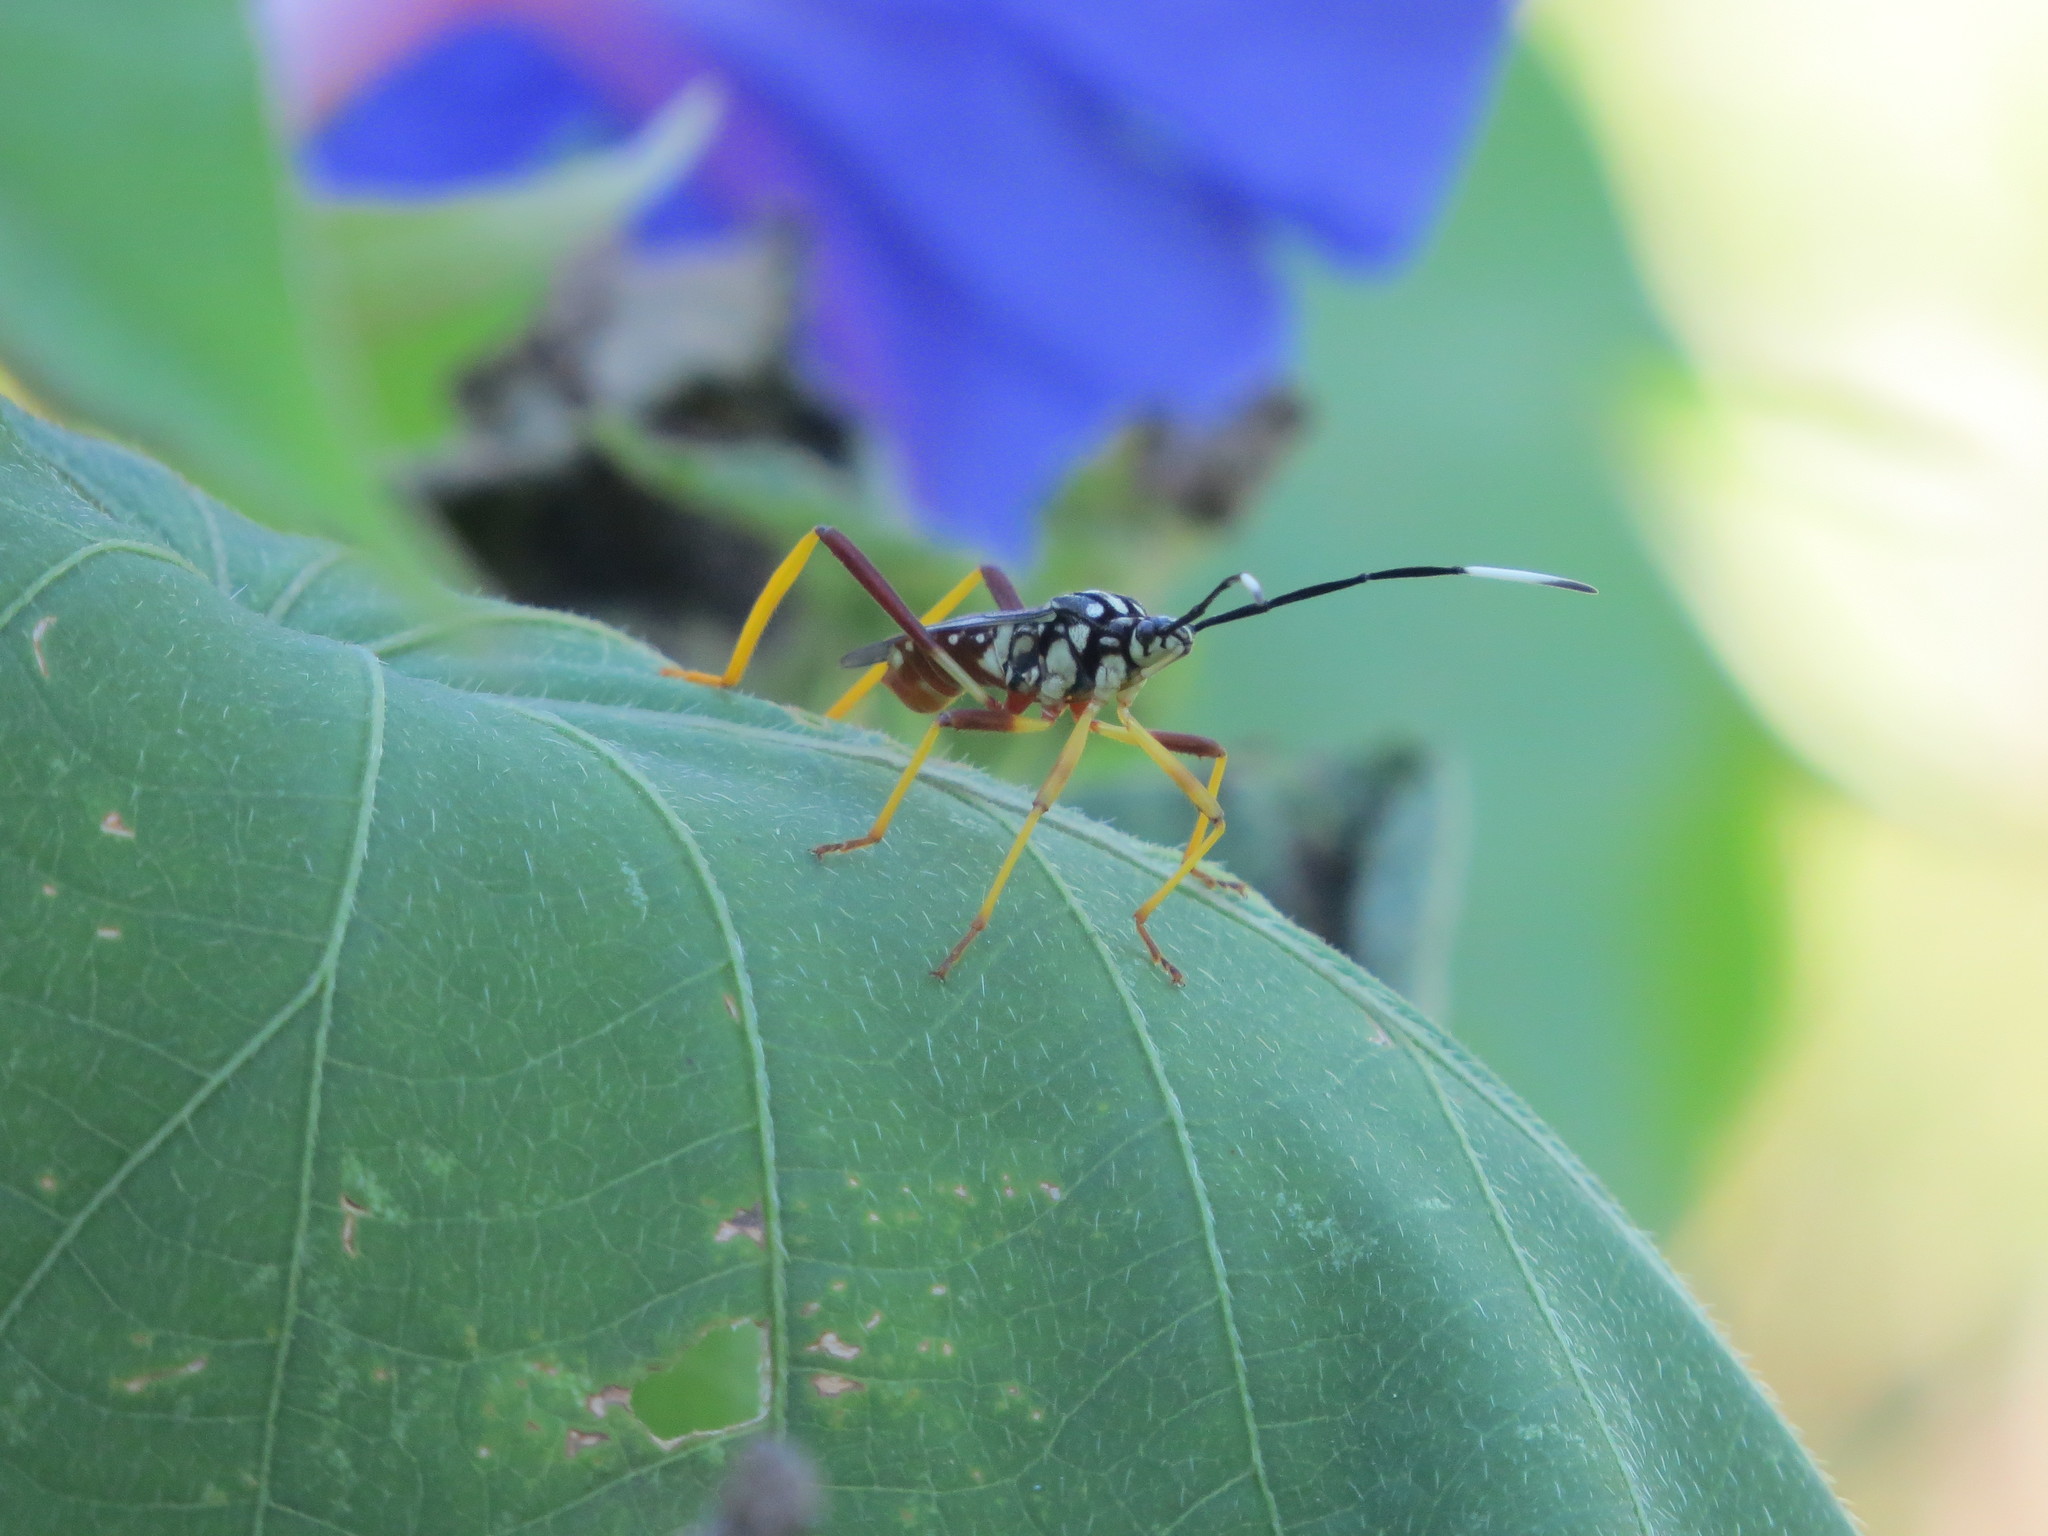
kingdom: Animalia
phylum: Arthropoda
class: Insecta
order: Hemiptera
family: Coreidae
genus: Holhymenia
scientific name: Holhymenia histrio
